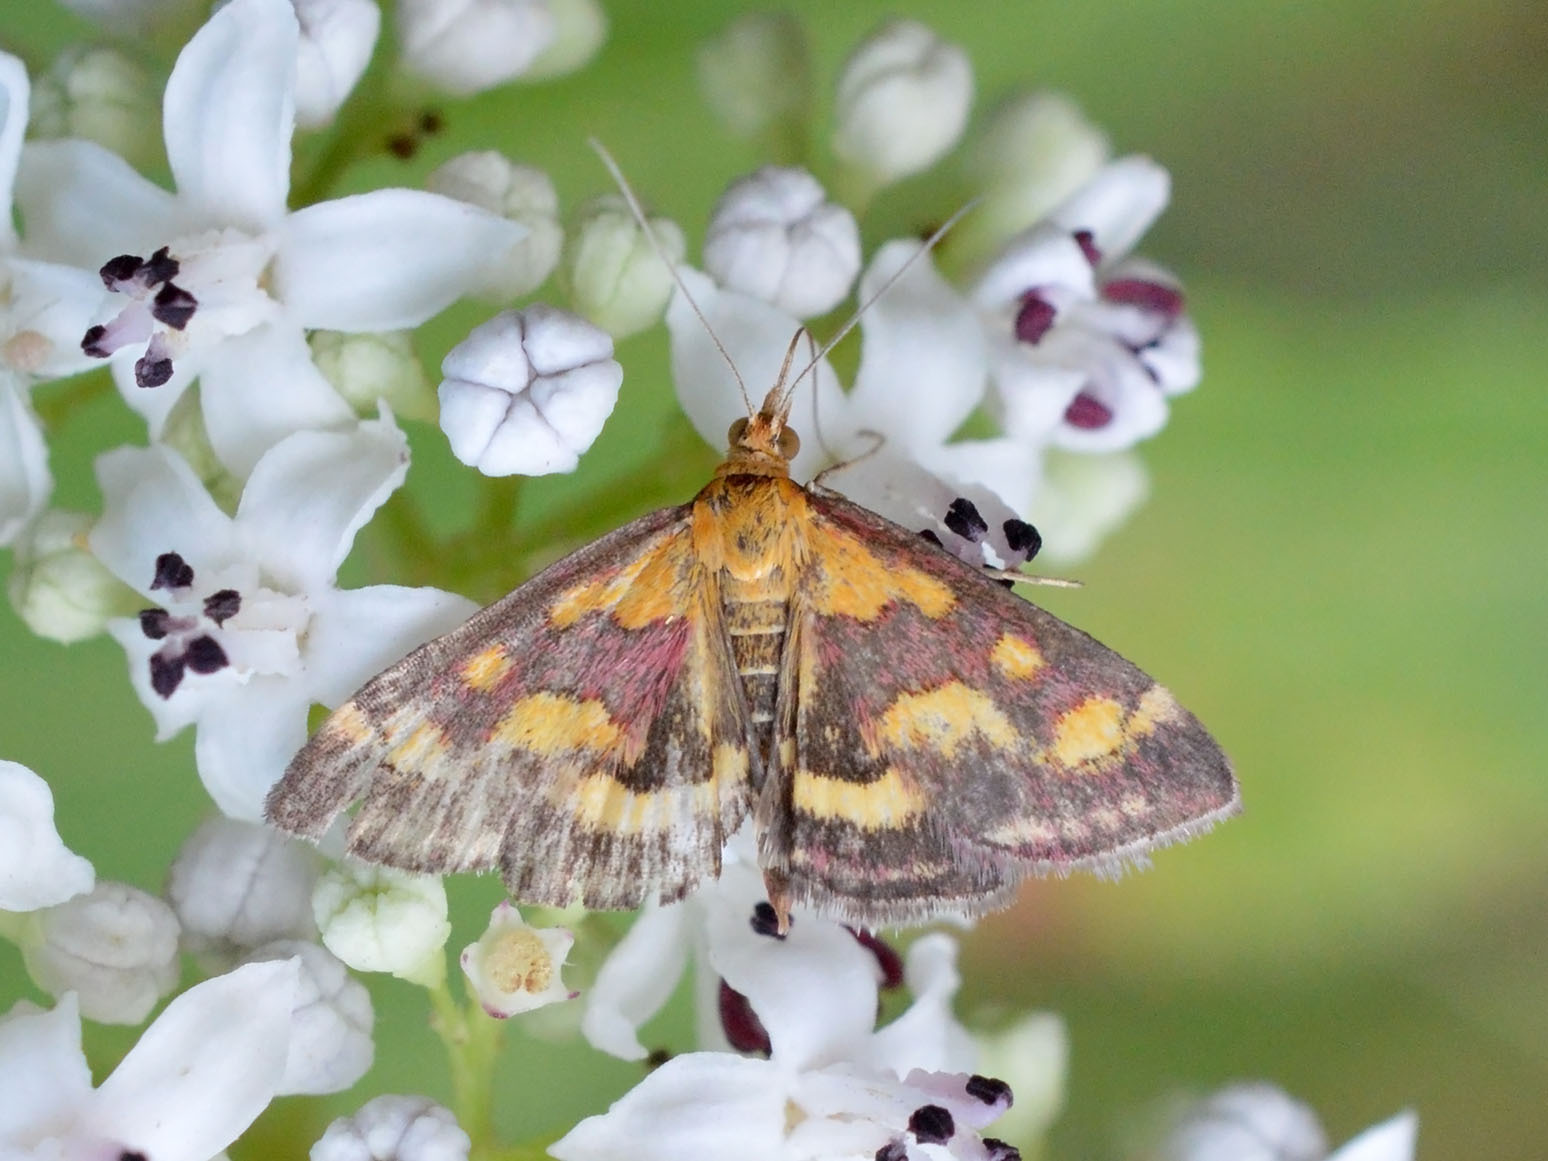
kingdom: Animalia
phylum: Arthropoda
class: Insecta
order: Lepidoptera
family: Crambidae
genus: Pyrausta
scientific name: Pyrausta purpuralis
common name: Common purple & gold
